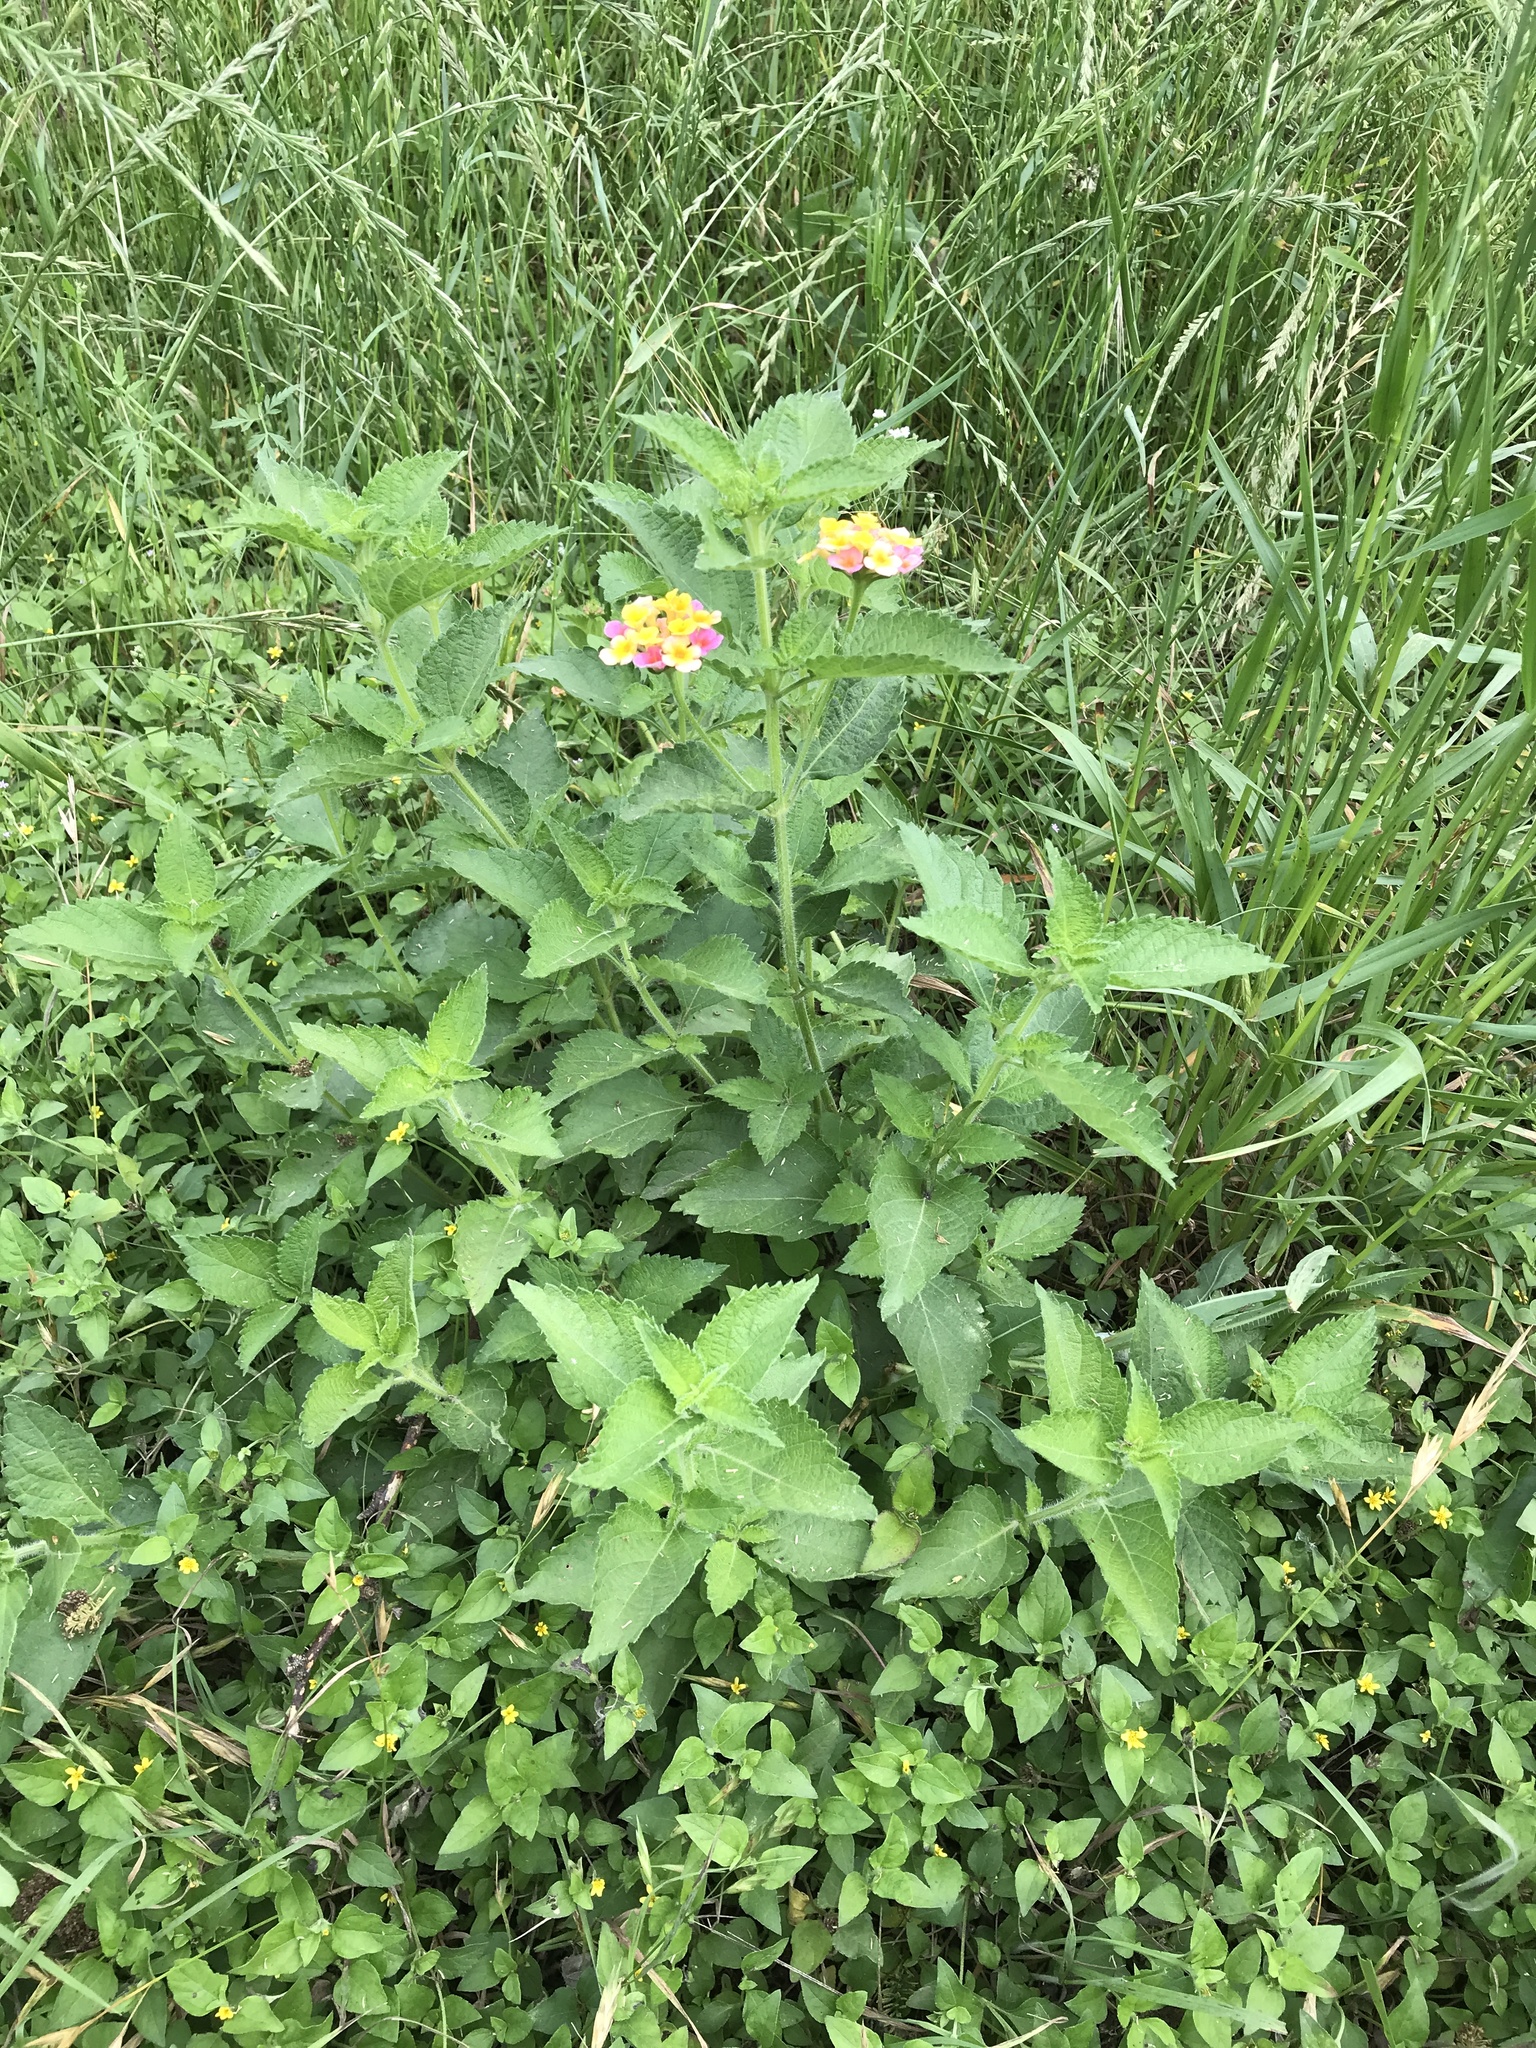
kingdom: Plantae
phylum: Tracheophyta
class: Magnoliopsida
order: Lamiales
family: Verbenaceae
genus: Lantana
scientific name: Lantana strigocamara
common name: Lantana
